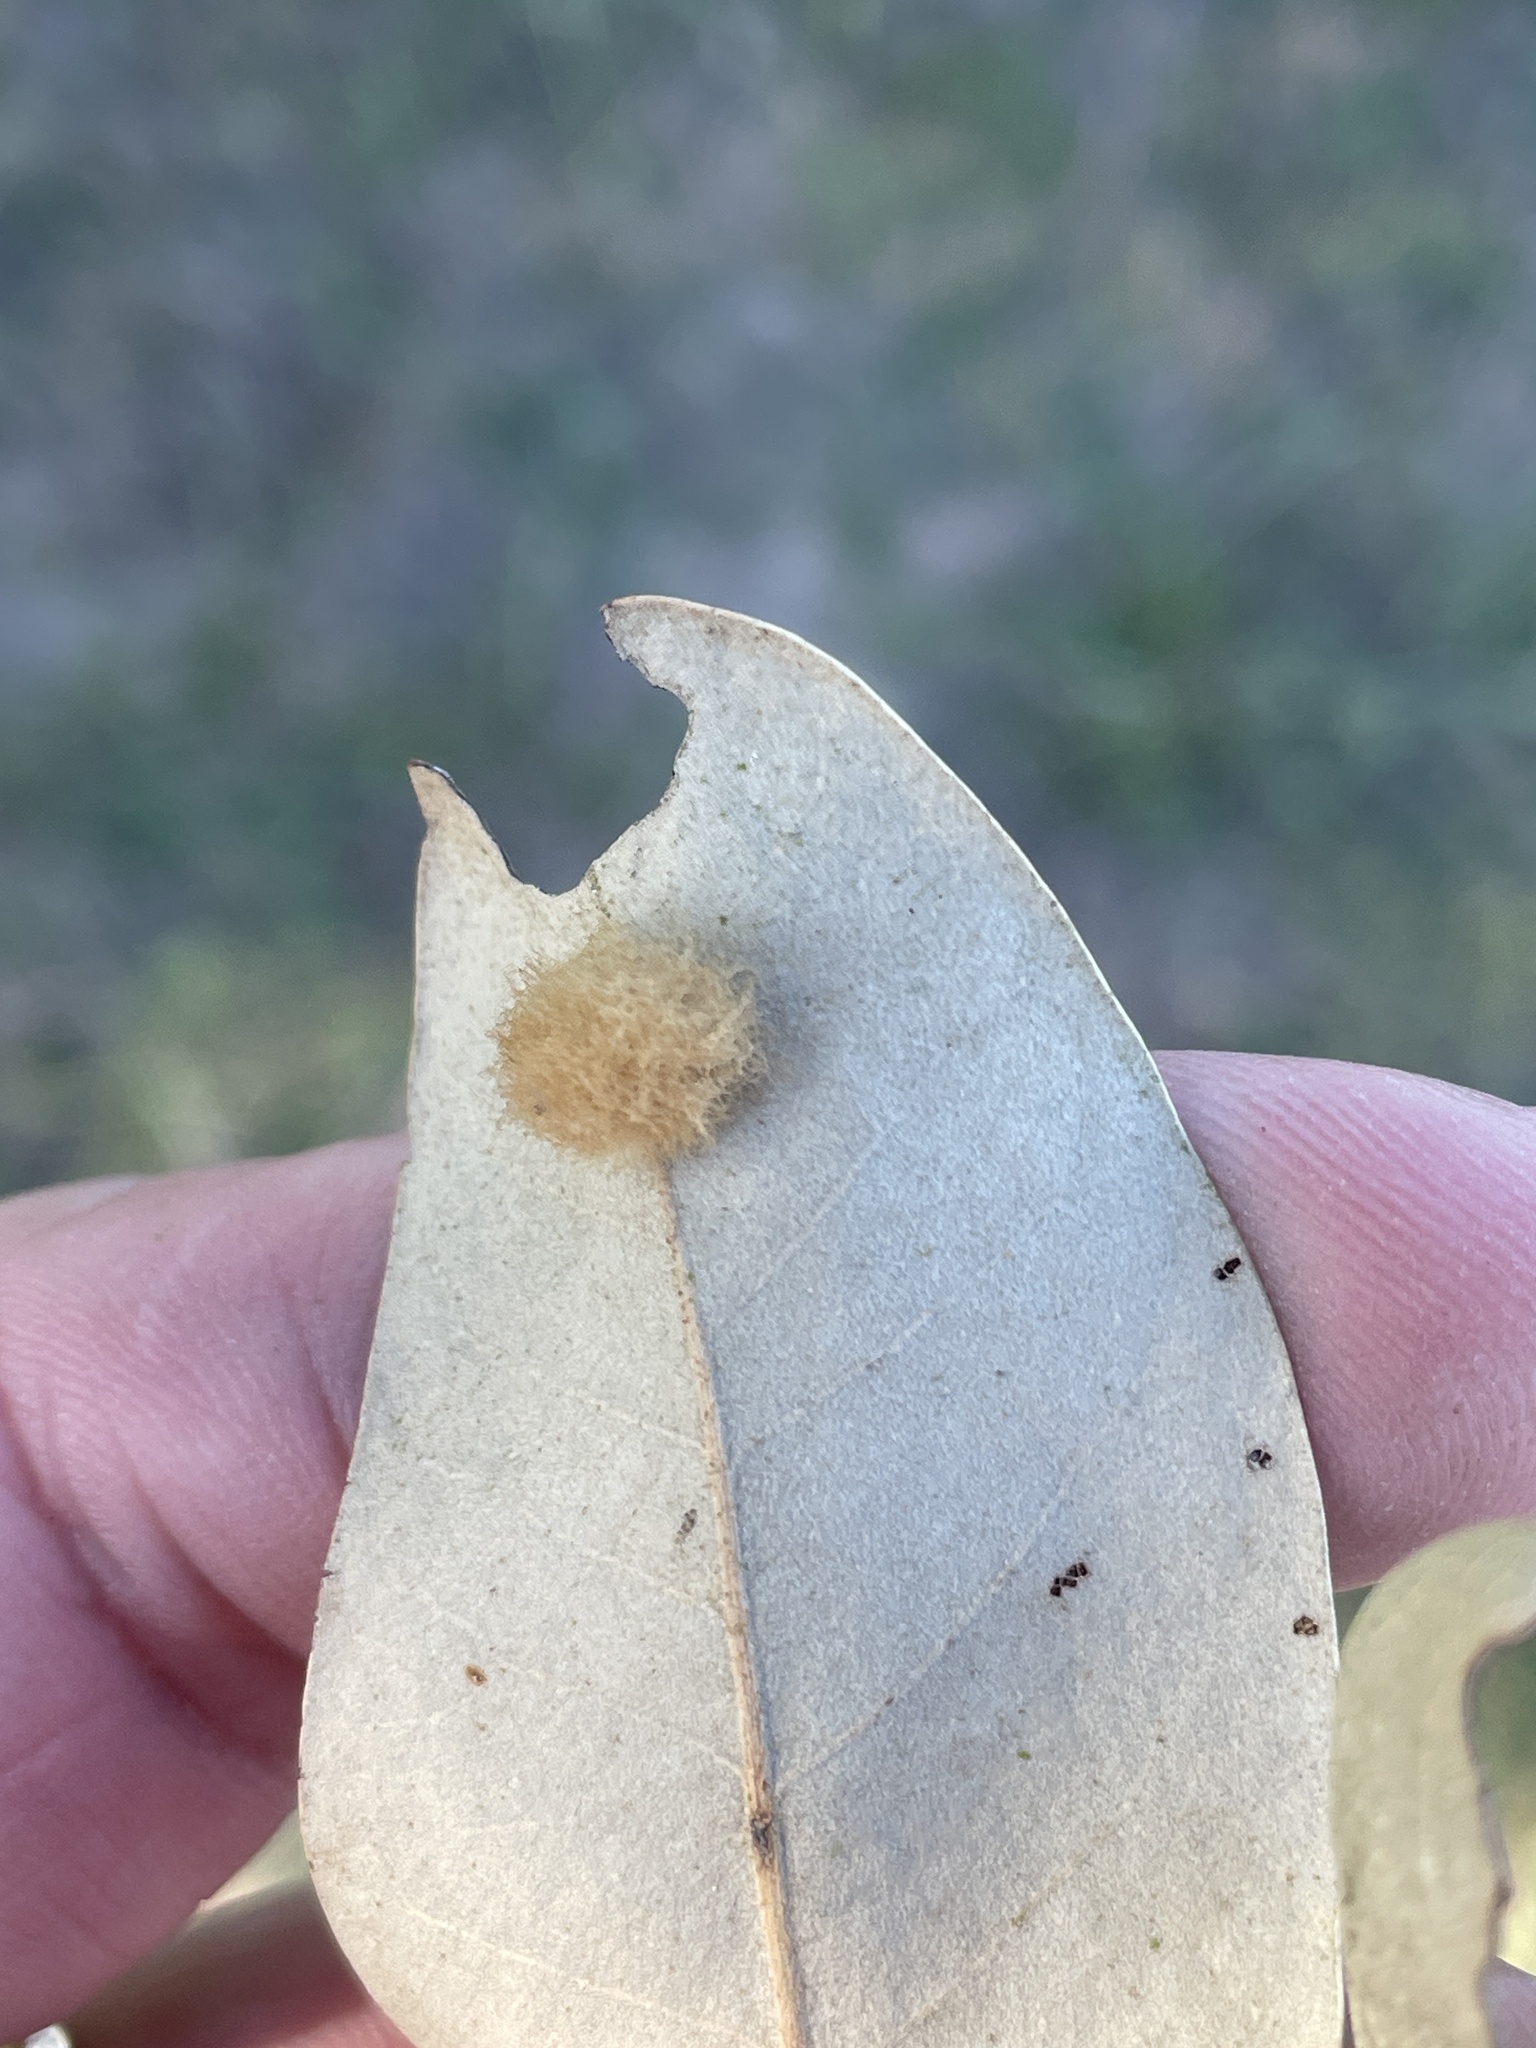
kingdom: Animalia
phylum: Arthropoda
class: Insecta
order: Hymenoptera
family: Cynipidae
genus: Andricus
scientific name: Andricus Druon quercuslanigerum
